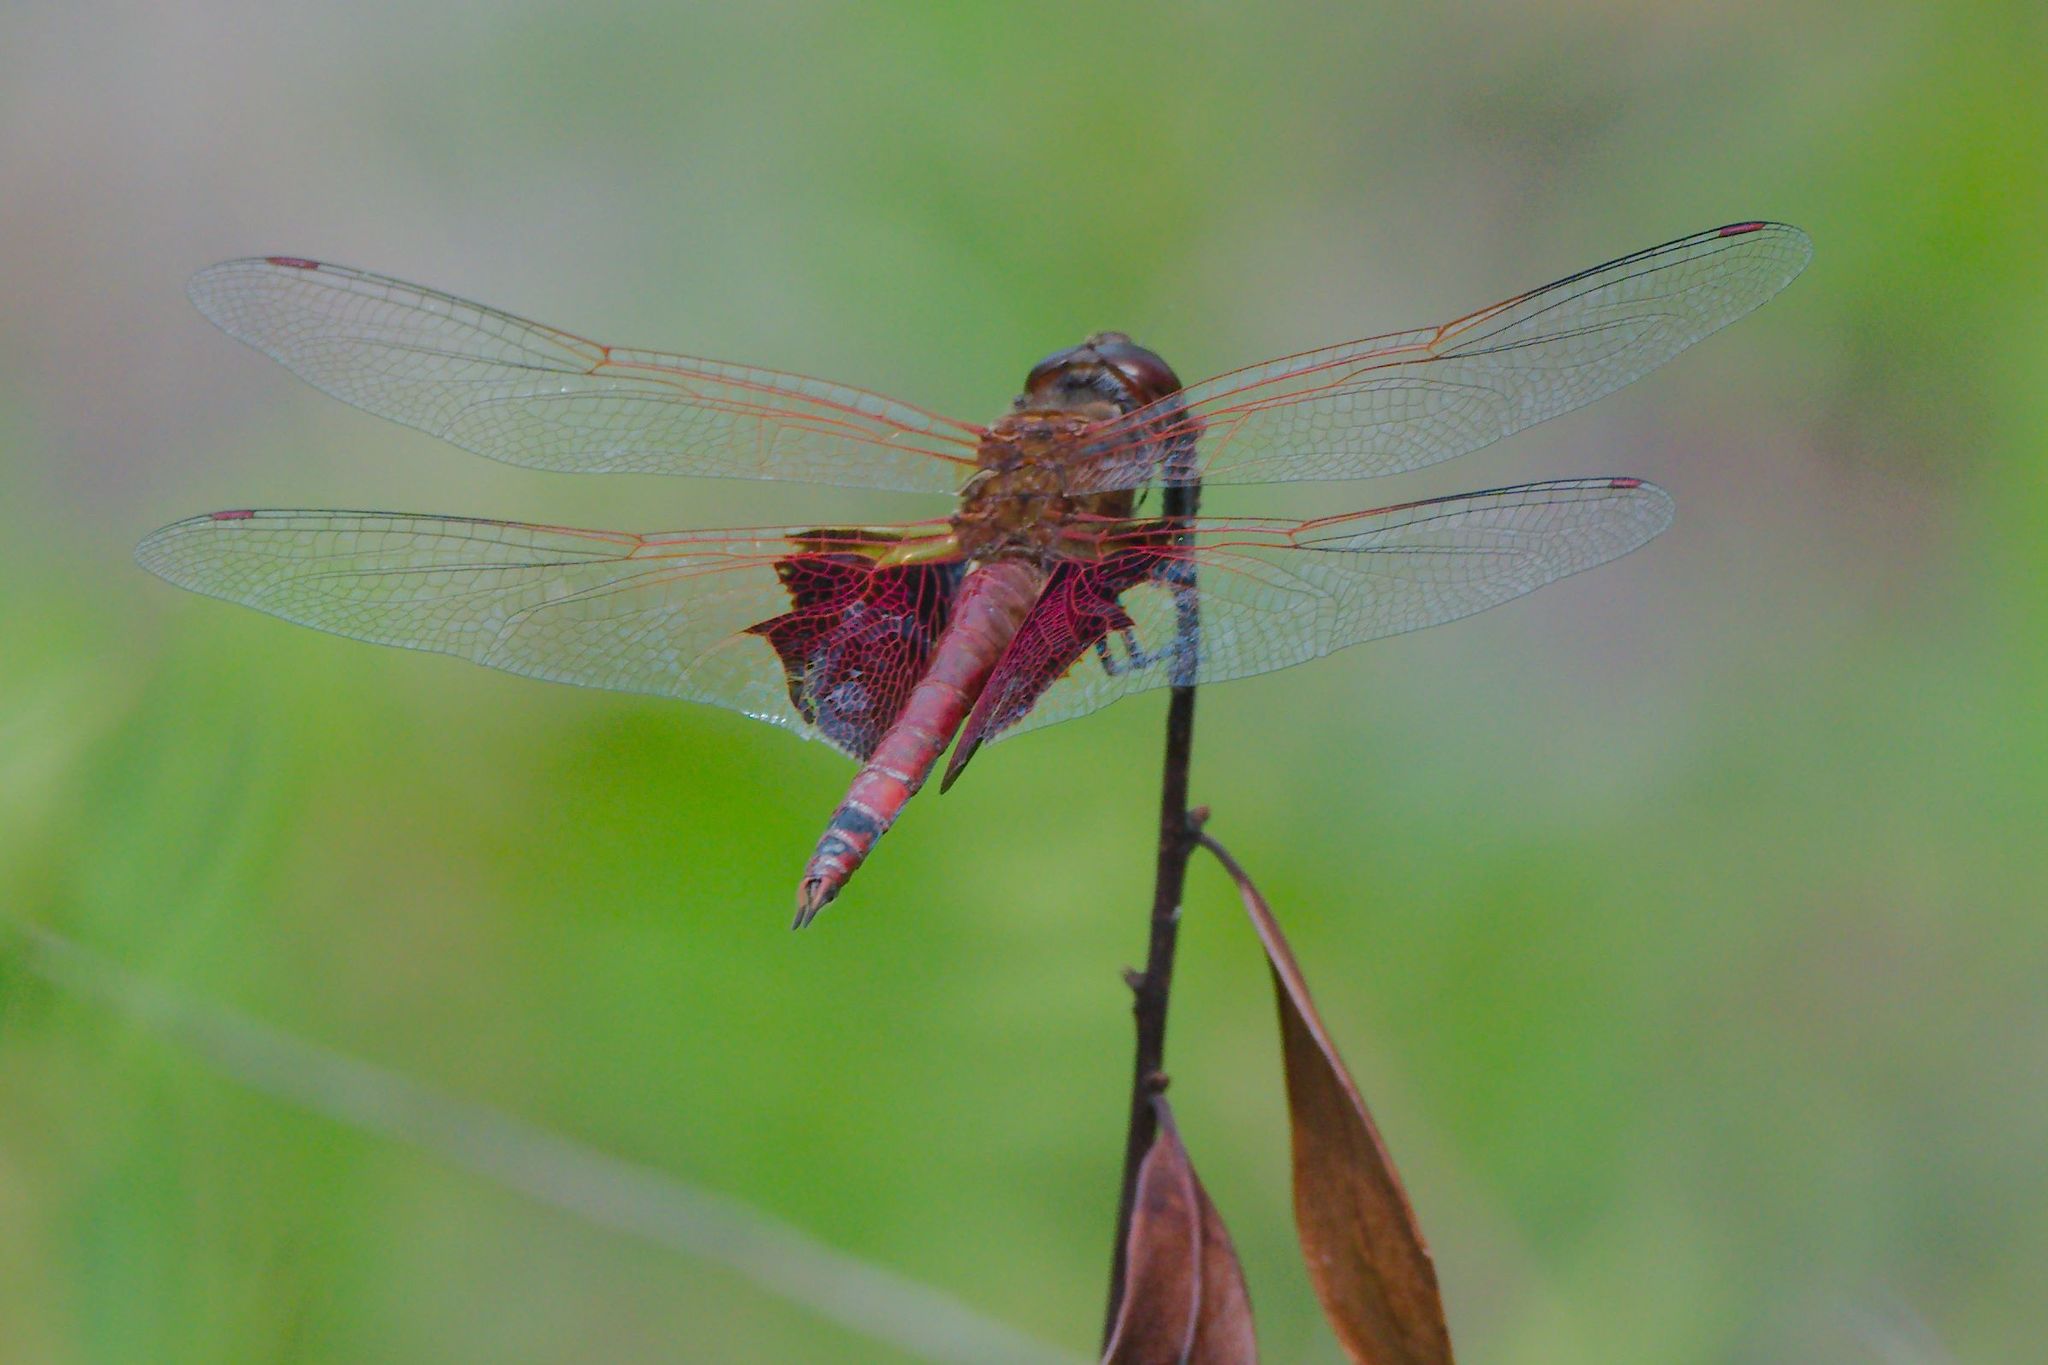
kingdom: Animalia
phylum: Arthropoda
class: Insecta
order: Odonata
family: Libellulidae
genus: Tramea
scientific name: Tramea carolina
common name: Carolina saddlebags
